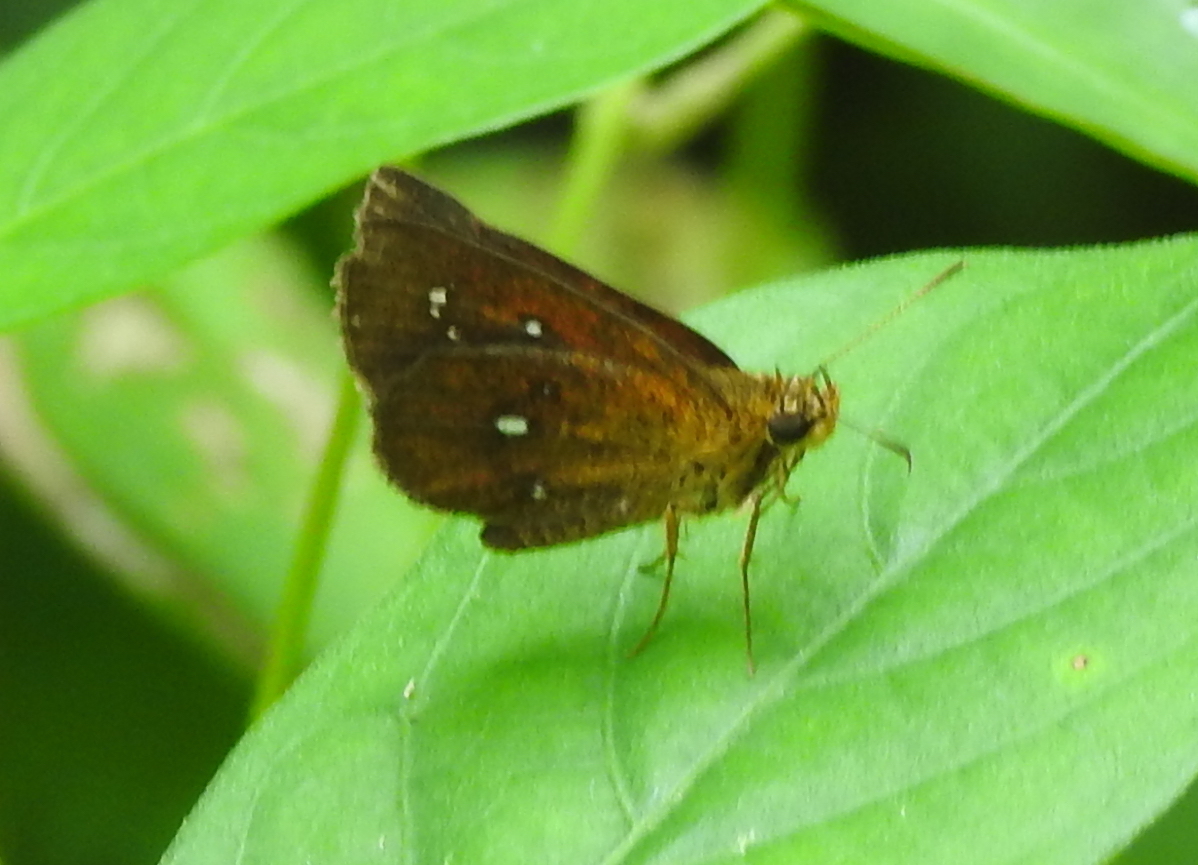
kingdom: Animalia
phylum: Arthropoda
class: Insecta
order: Lepidoptera
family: Hesperiidae
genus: Iambrix
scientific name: Iambrix salsala
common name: Chestnut bob
